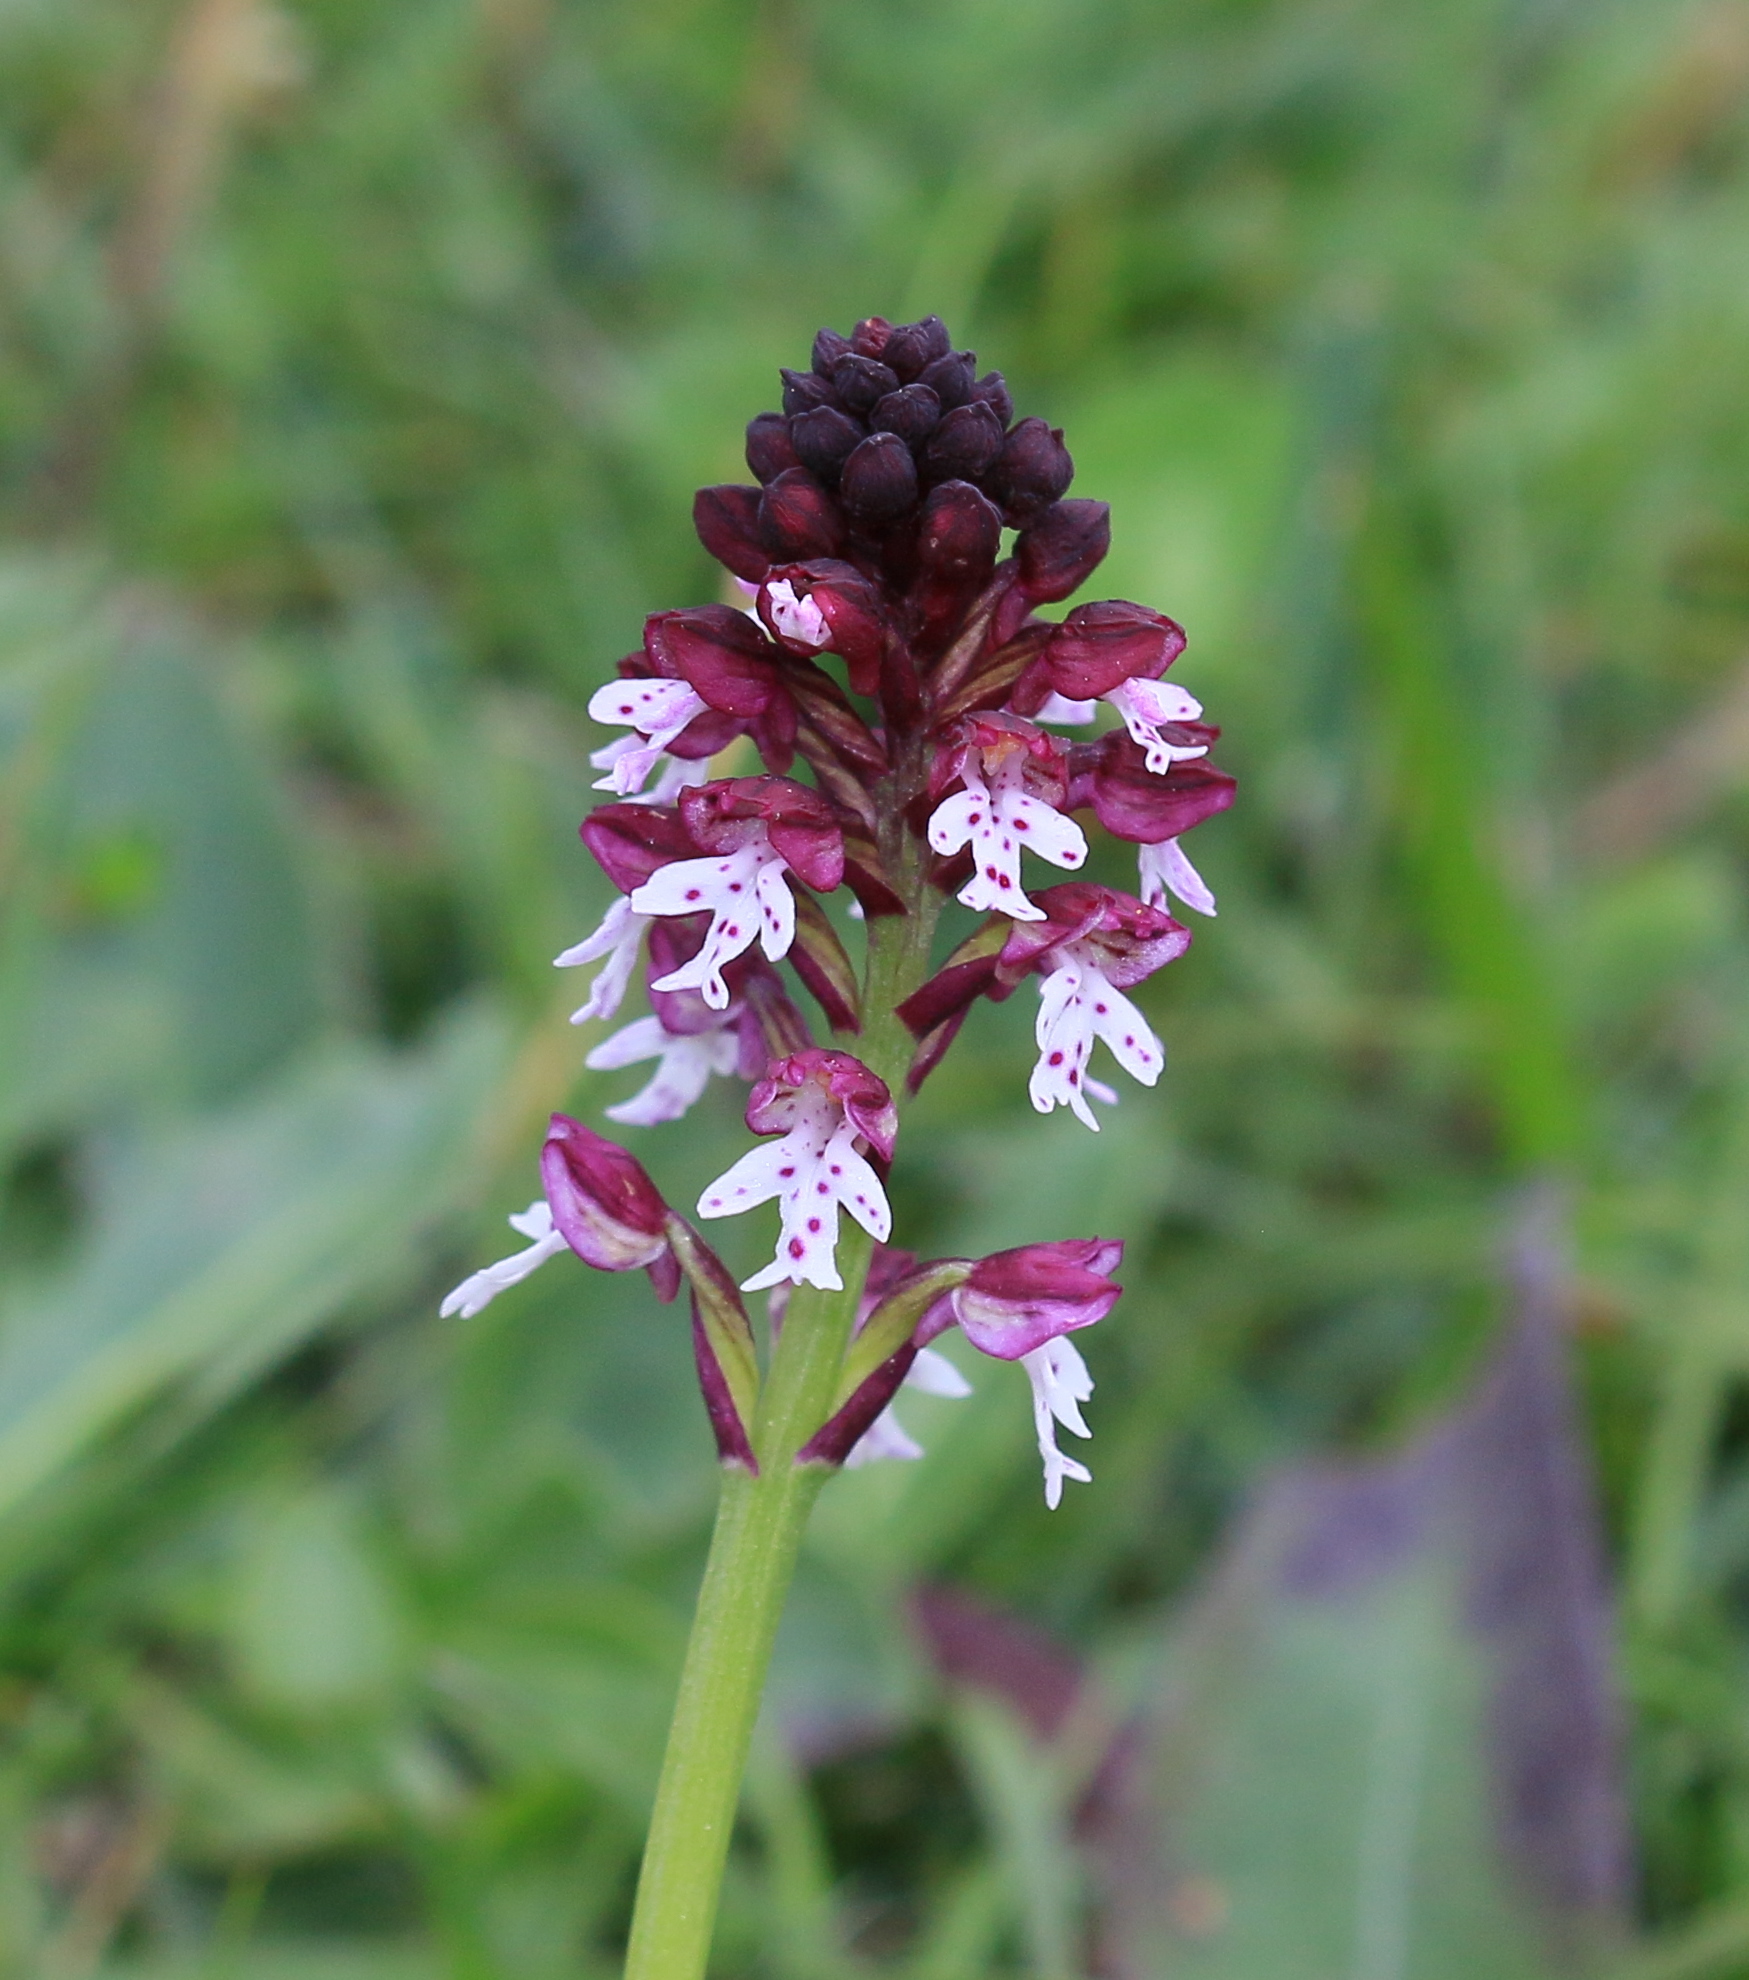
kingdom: Plantae
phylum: Tracheophyta
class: Liliopsida
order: Asparagales
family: Orchidaceae
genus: Neotinea
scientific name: Neotinea ustulata
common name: Burnt orchid
